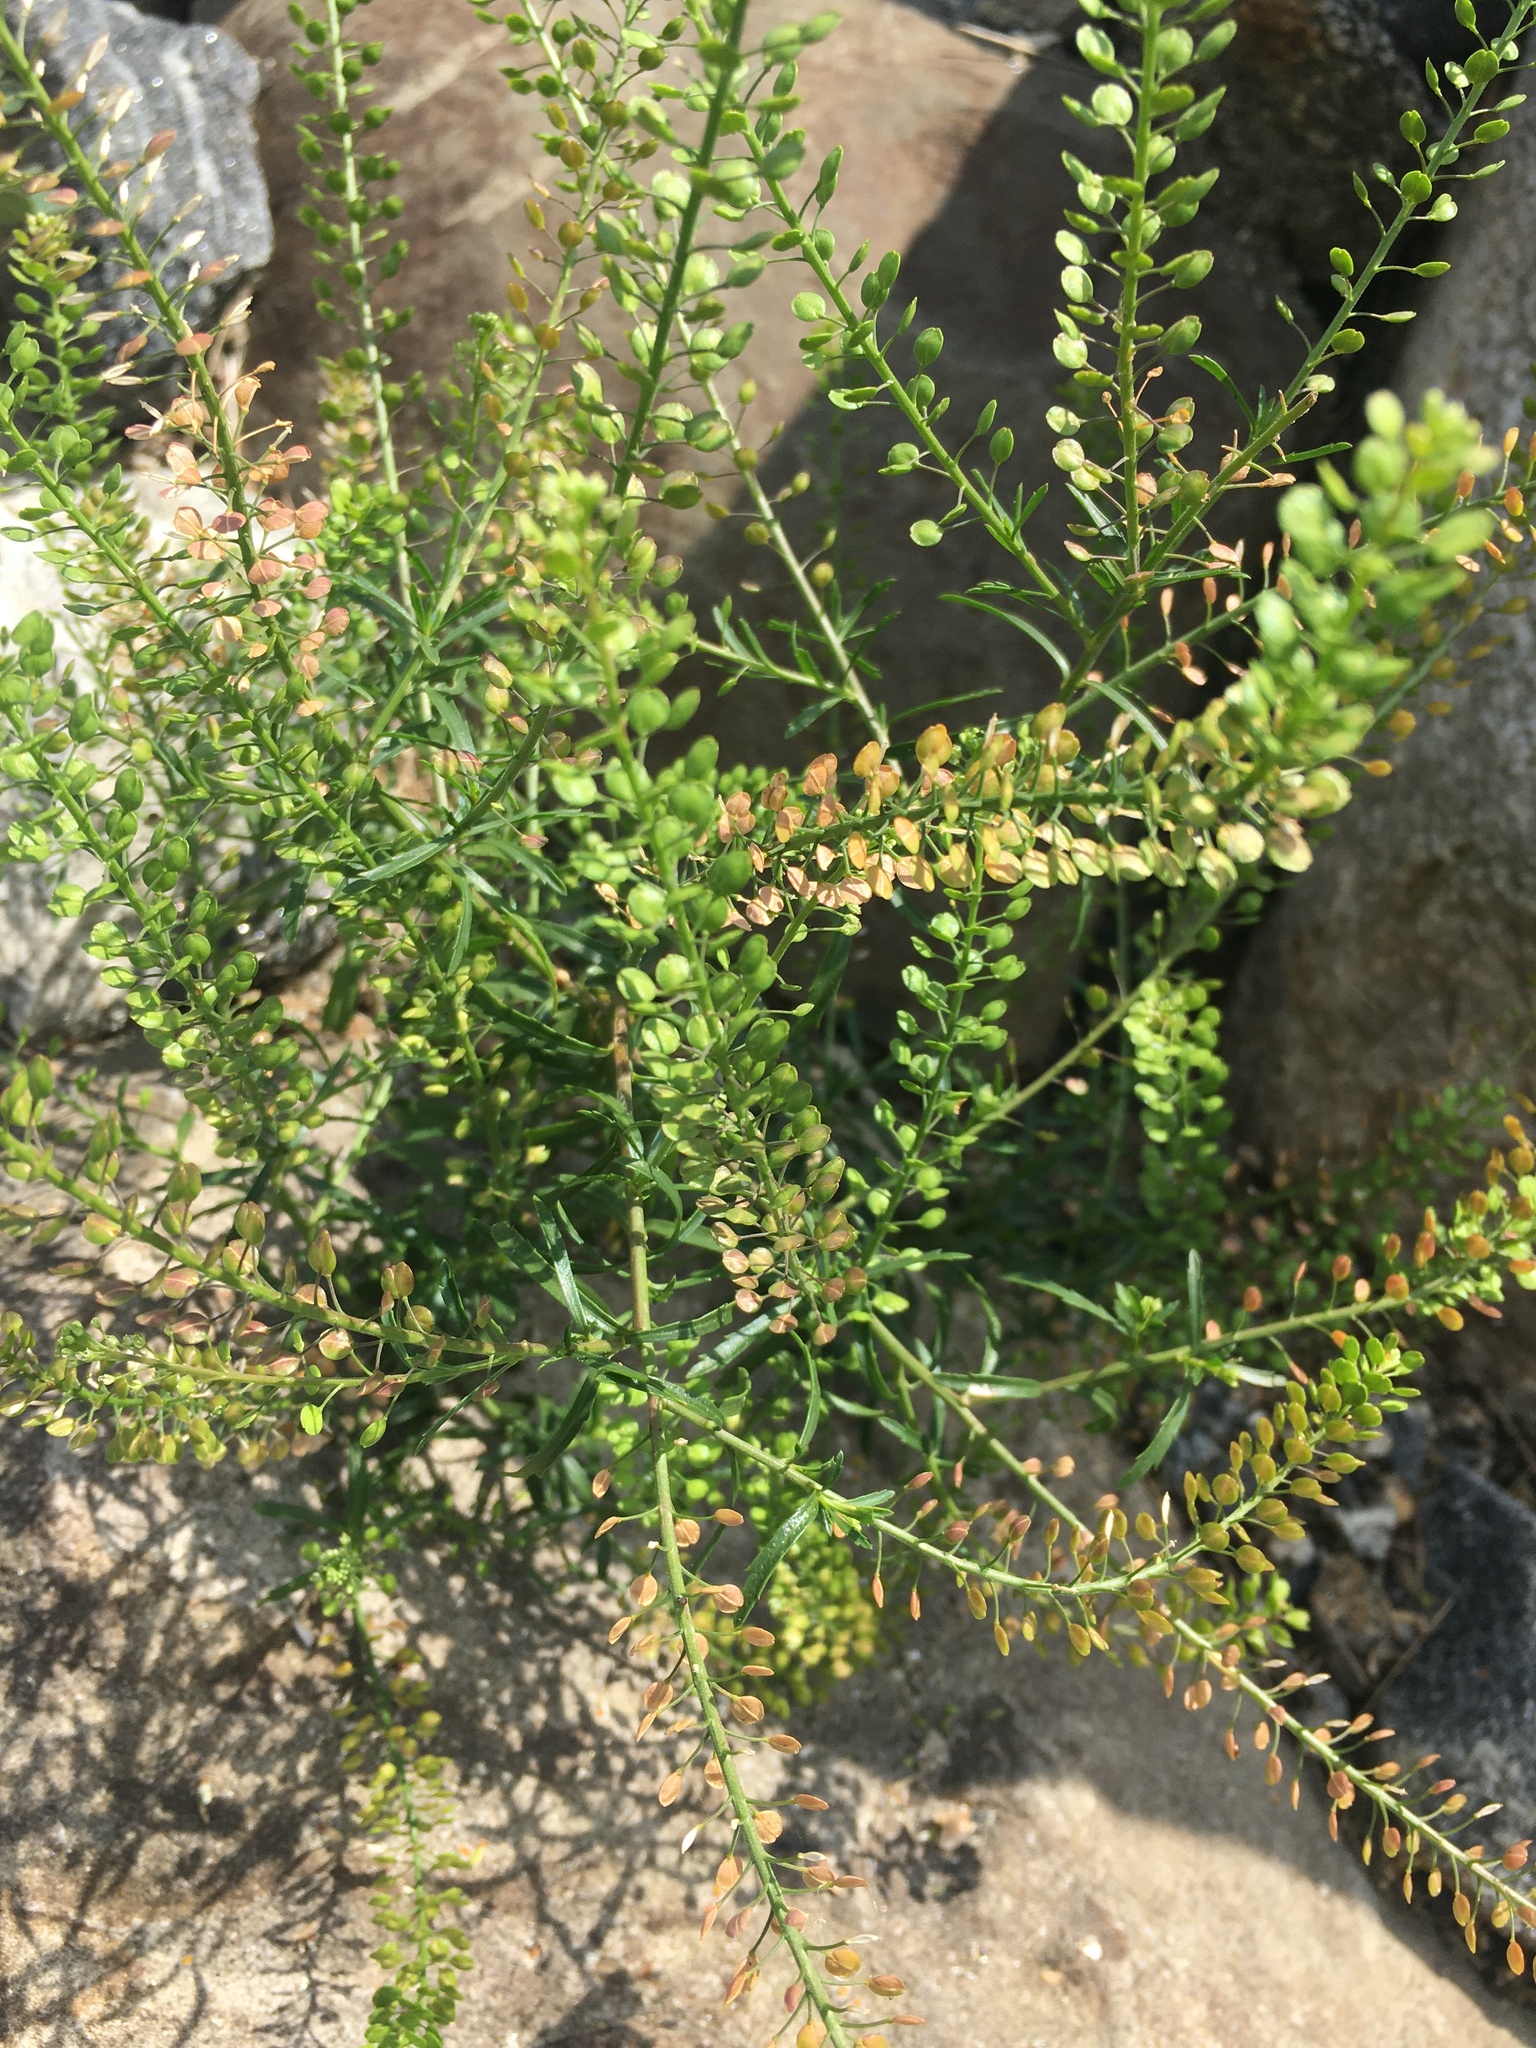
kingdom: Plantae
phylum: Tracheophyta
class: Magnoliopsida
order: Brassicales
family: Brassicaceae
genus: Lepidium
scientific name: Lepidium virginicum
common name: Least pepperwort
